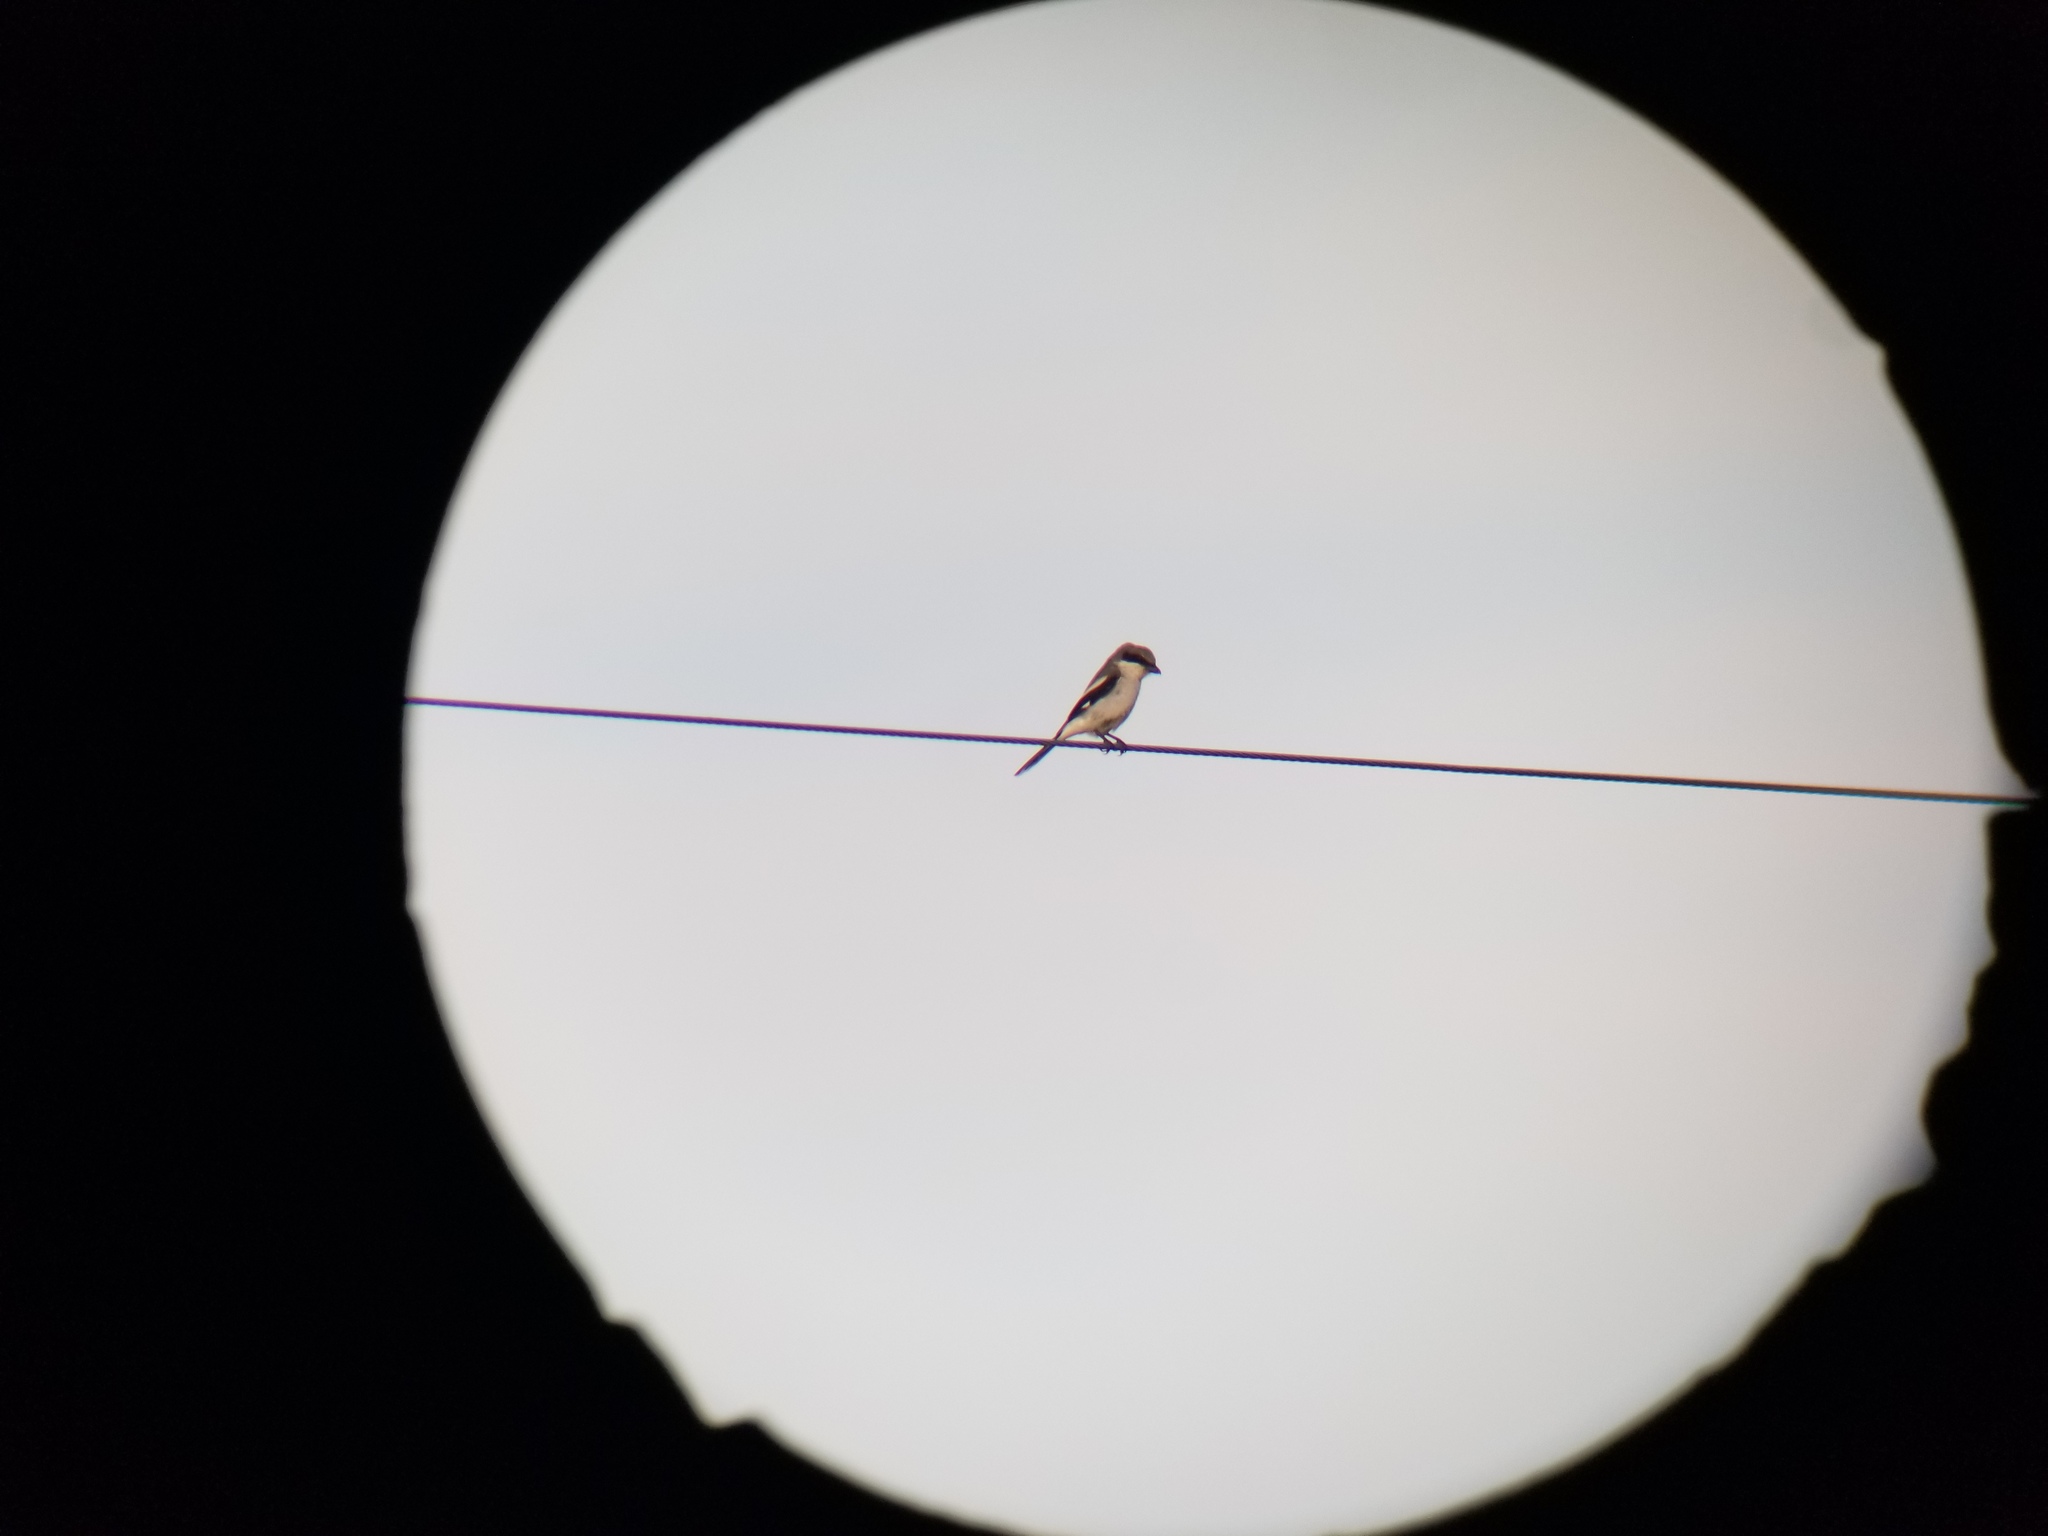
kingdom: Animalia
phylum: Chordata
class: Aves
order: Passeriformes
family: Laniidae
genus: Lanius
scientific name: Lanius ludovicianus
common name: Loggerhead shrike
